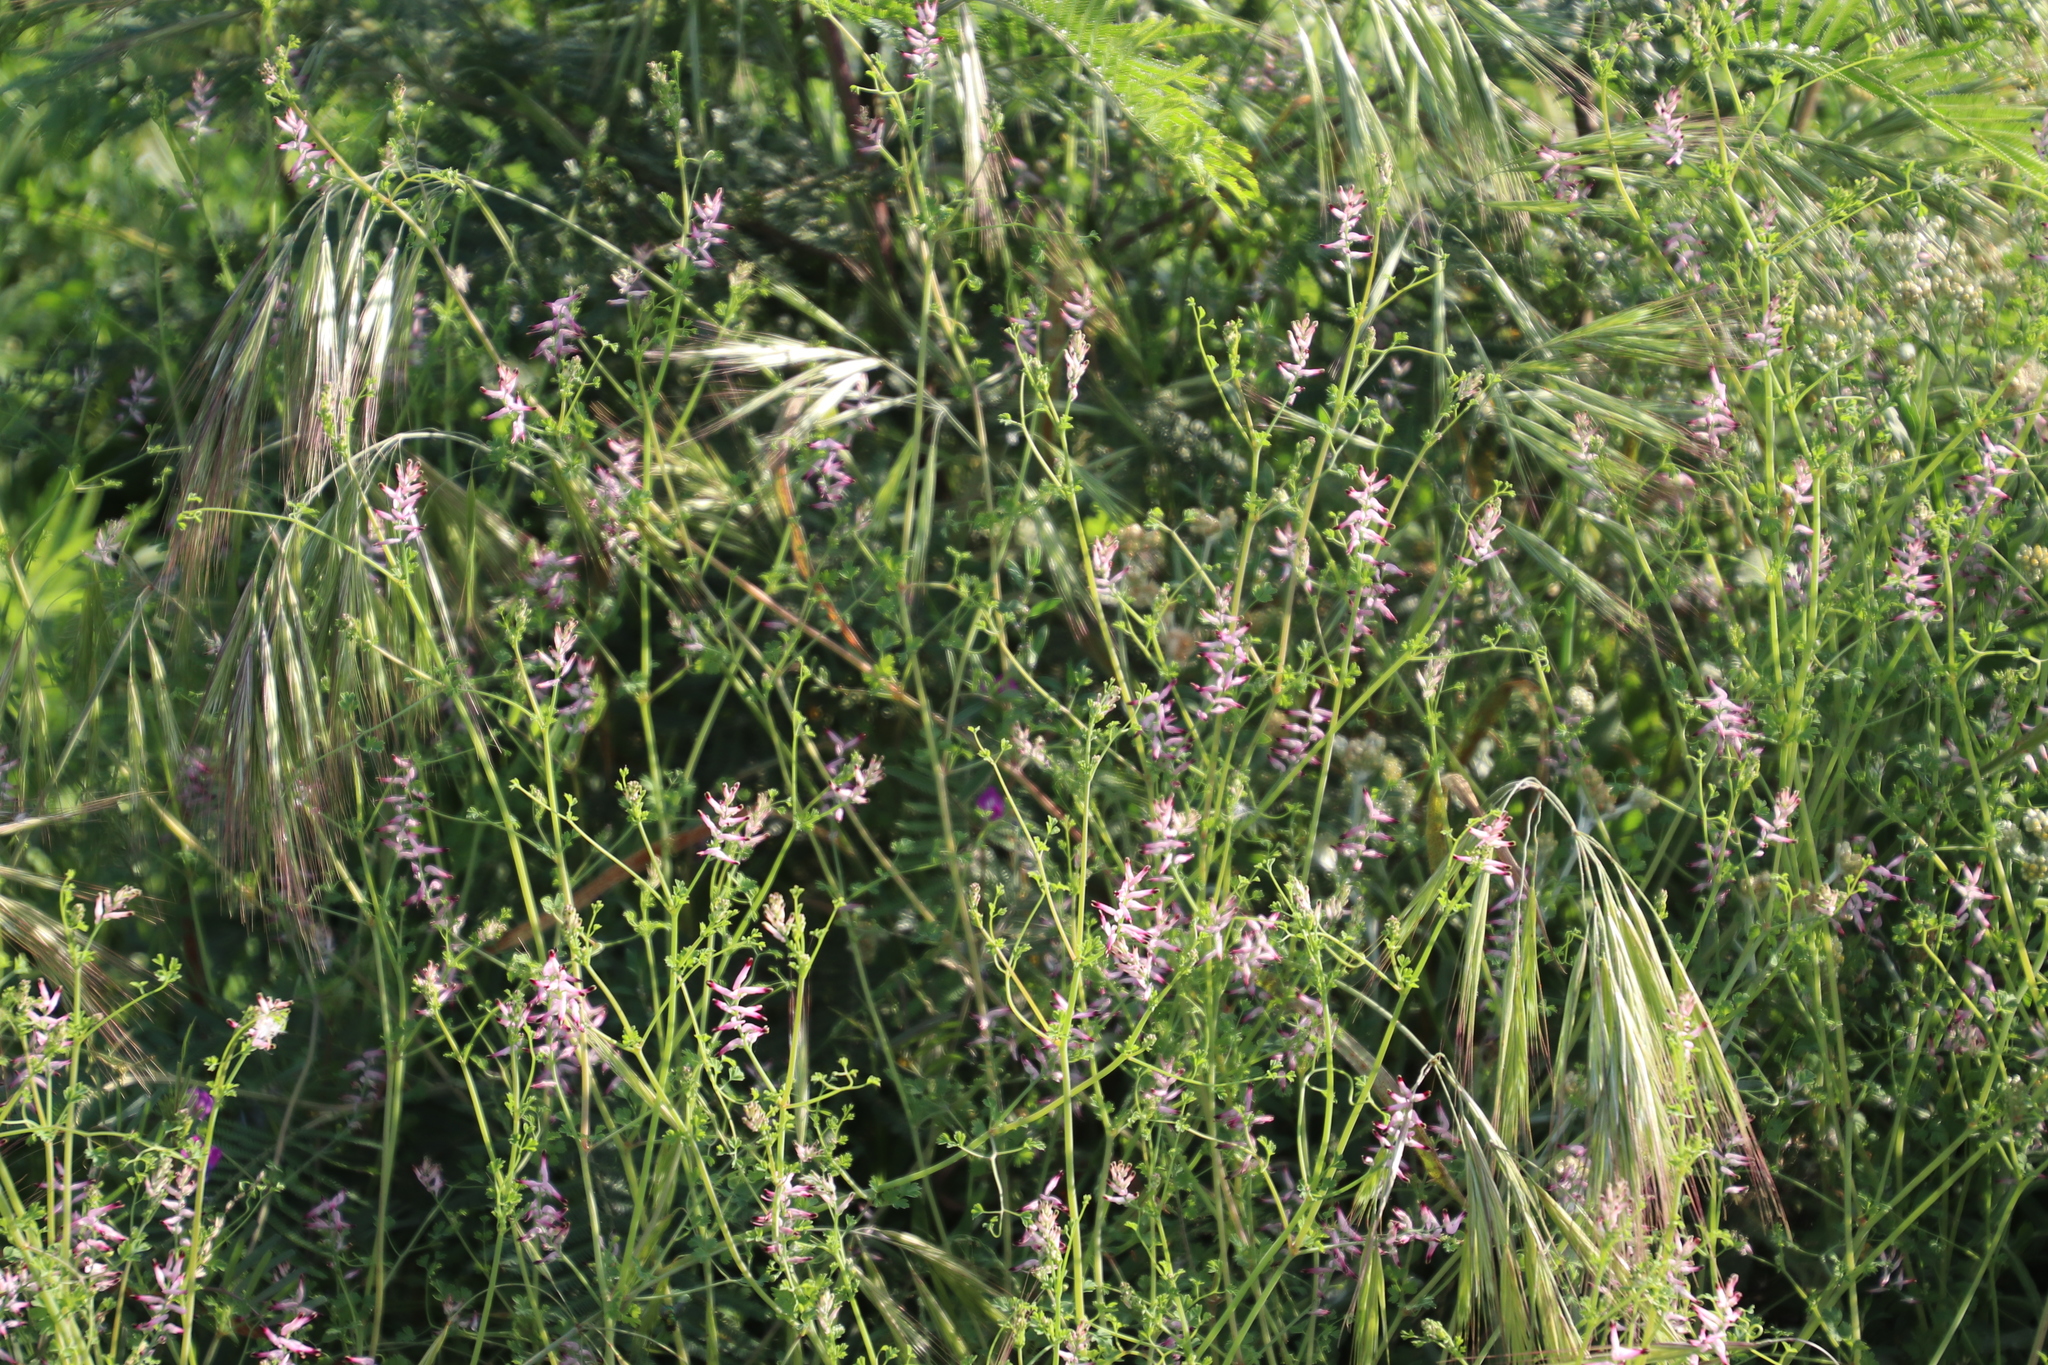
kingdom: Plantae
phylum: Tracheophyta
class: Magnoliopsida
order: Ranunculales
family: Papaveraceae
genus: Fumaria
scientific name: Fumaria muralis
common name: Common ramping-fumitory
